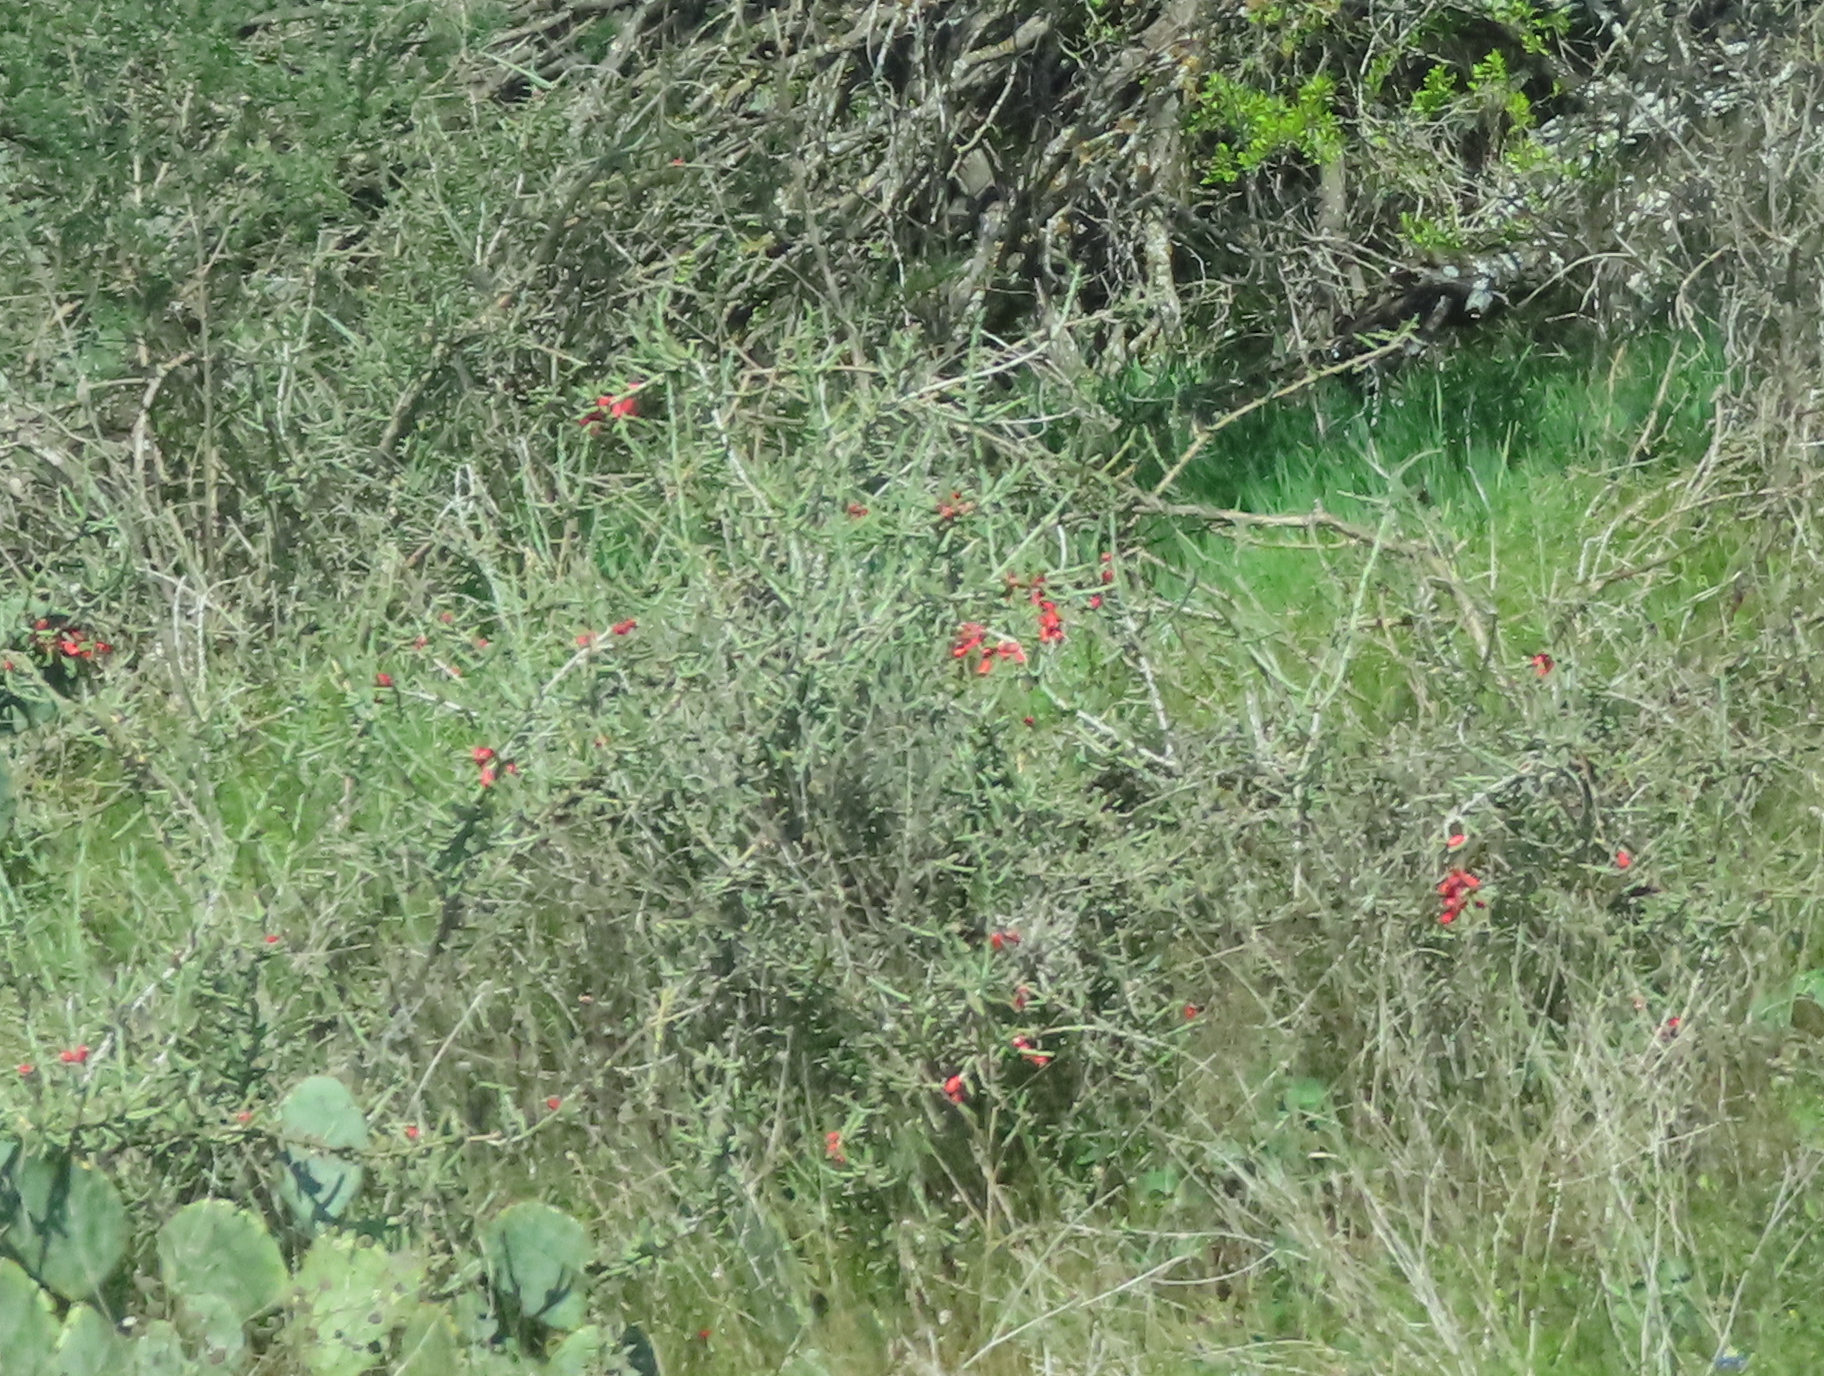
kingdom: Plantae
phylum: Tracheophyta
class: Magnoliopsida
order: Caryophyllales
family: Cactaceae
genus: Cylindropuntia
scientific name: Cylindropuntia leptocaulis
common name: Christmas cactus
